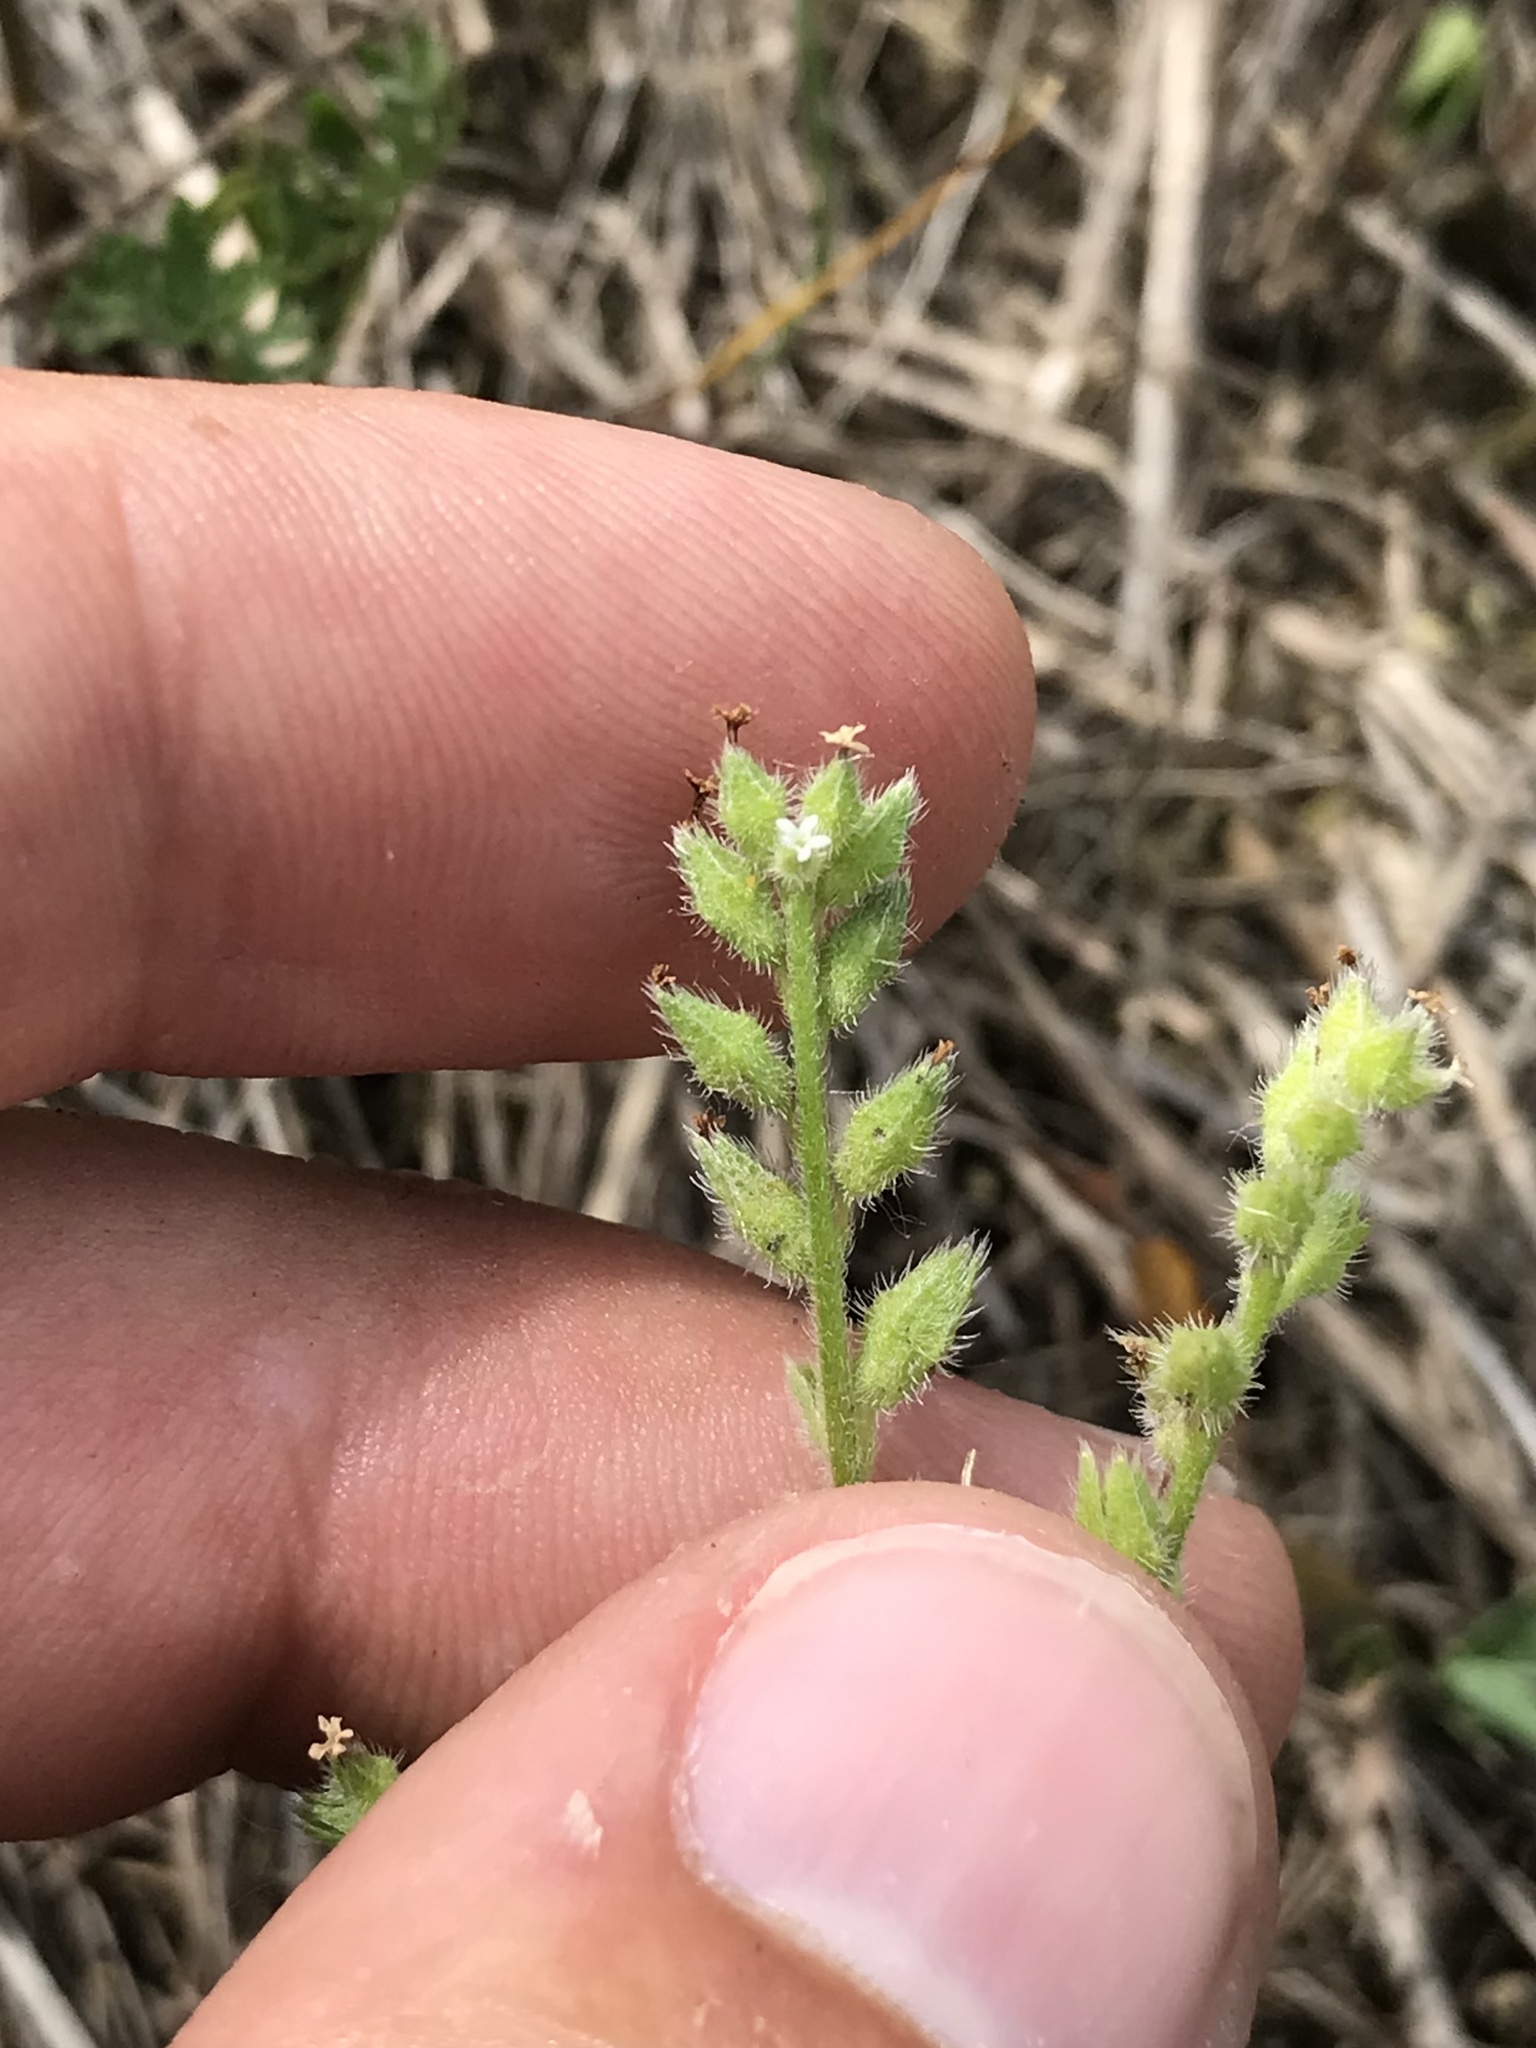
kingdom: Plantae
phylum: Tracheophyta
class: Magnoliopsida
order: Boraginales
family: Boraginaceae
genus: Myosotis
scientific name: Myosotis verna
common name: Early forget-me-not
